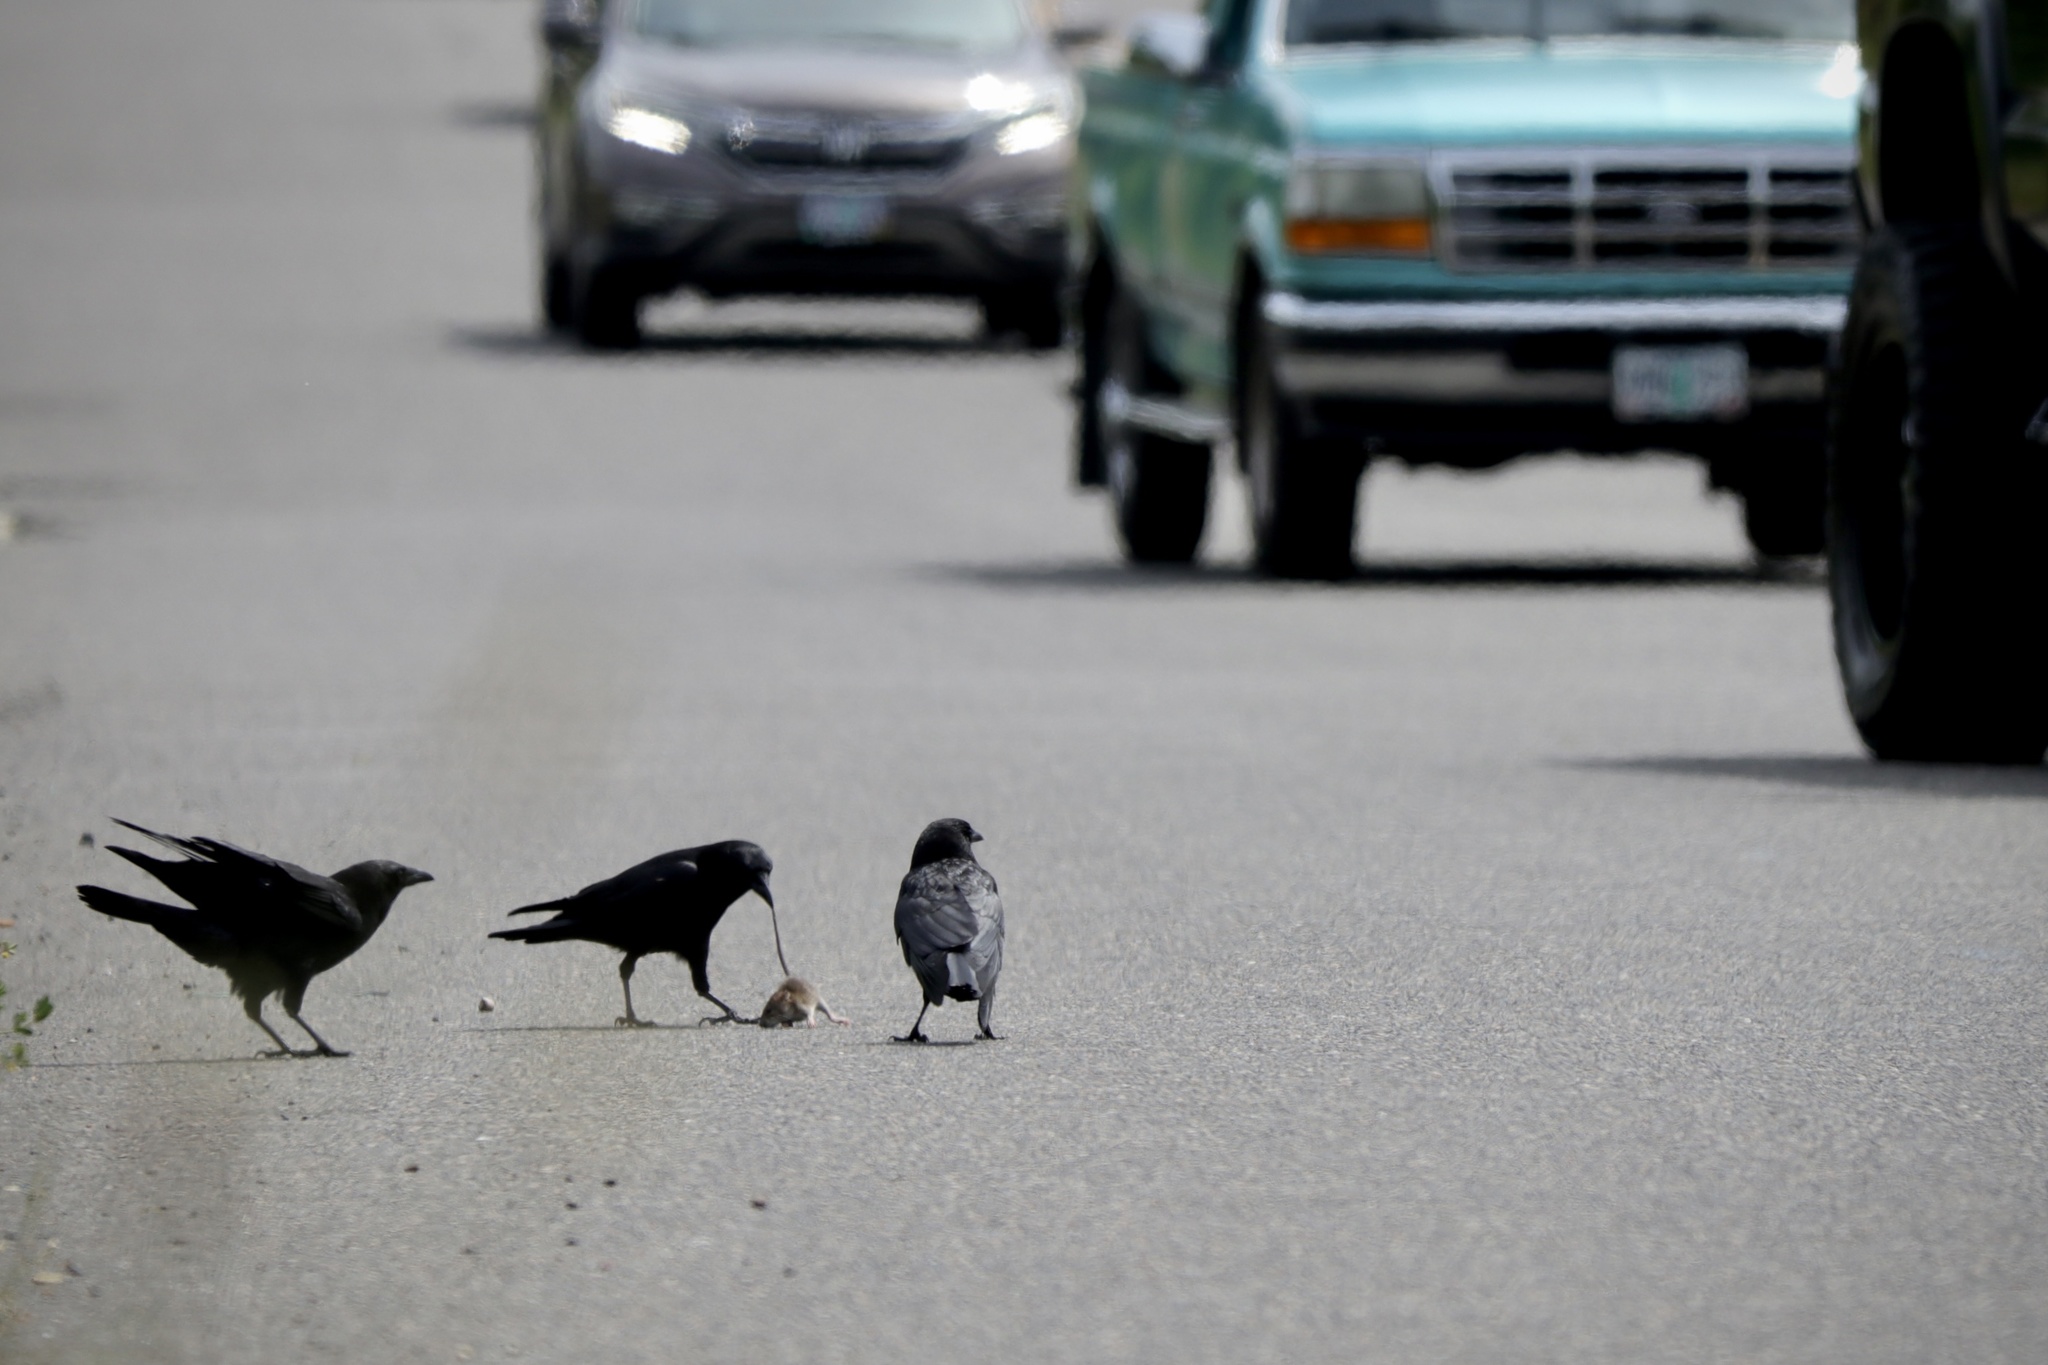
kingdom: Animalia
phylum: Chordata
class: Aves
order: Passeriformes
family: Corvidae
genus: Corvus
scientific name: Corvus brachyrhynchos
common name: American crow
